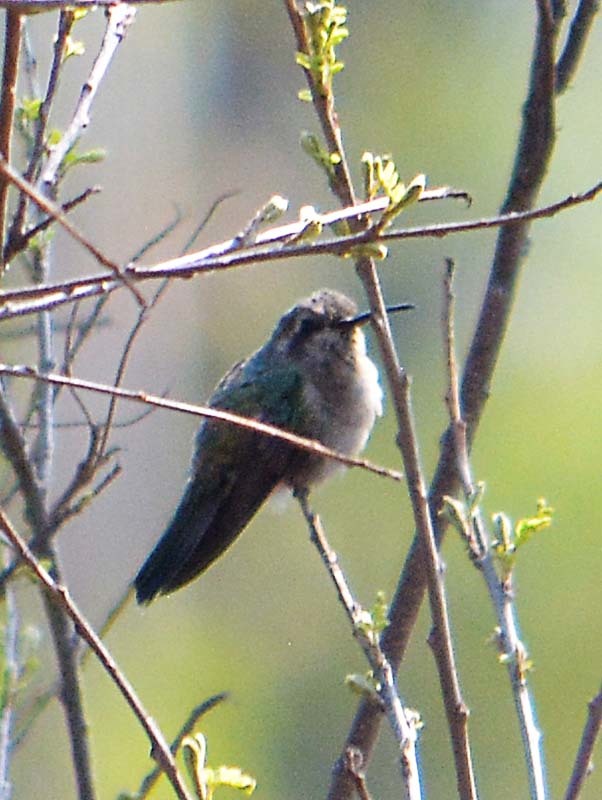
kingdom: Animalia
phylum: Chordata
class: Aves
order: Apodiformes
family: Trochilidae
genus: Cynanthus
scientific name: Cynanthus latirostris
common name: Broad-billed hummingbird
